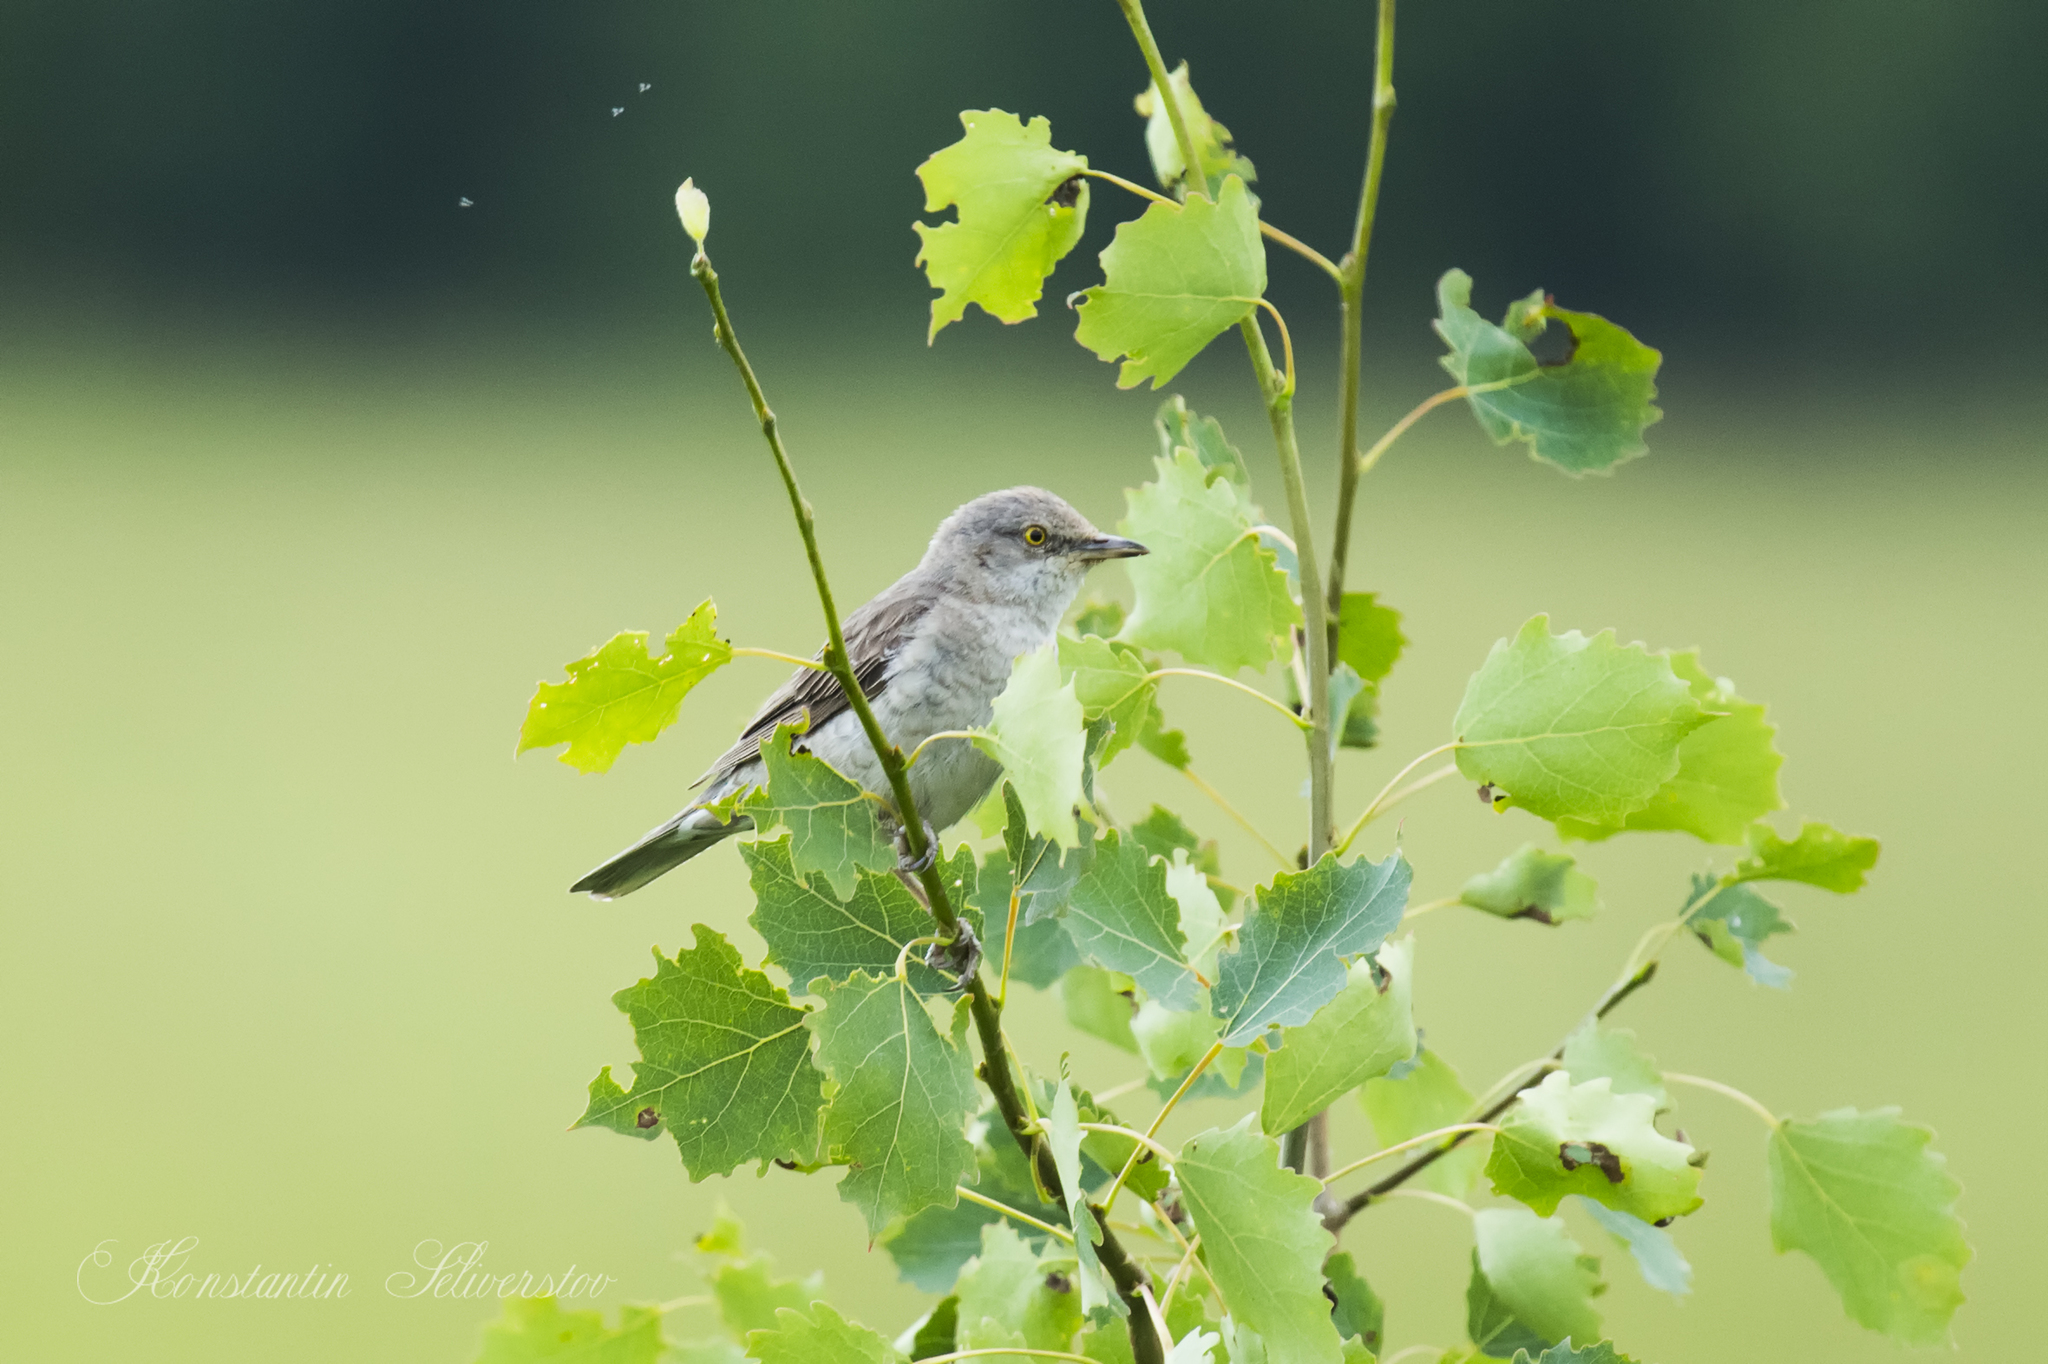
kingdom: Animalia
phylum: Chordata
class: Aves
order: Passeriformes
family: Sylviidae
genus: Sylvia
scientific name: Sylvia nisoria
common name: Barred warbler
